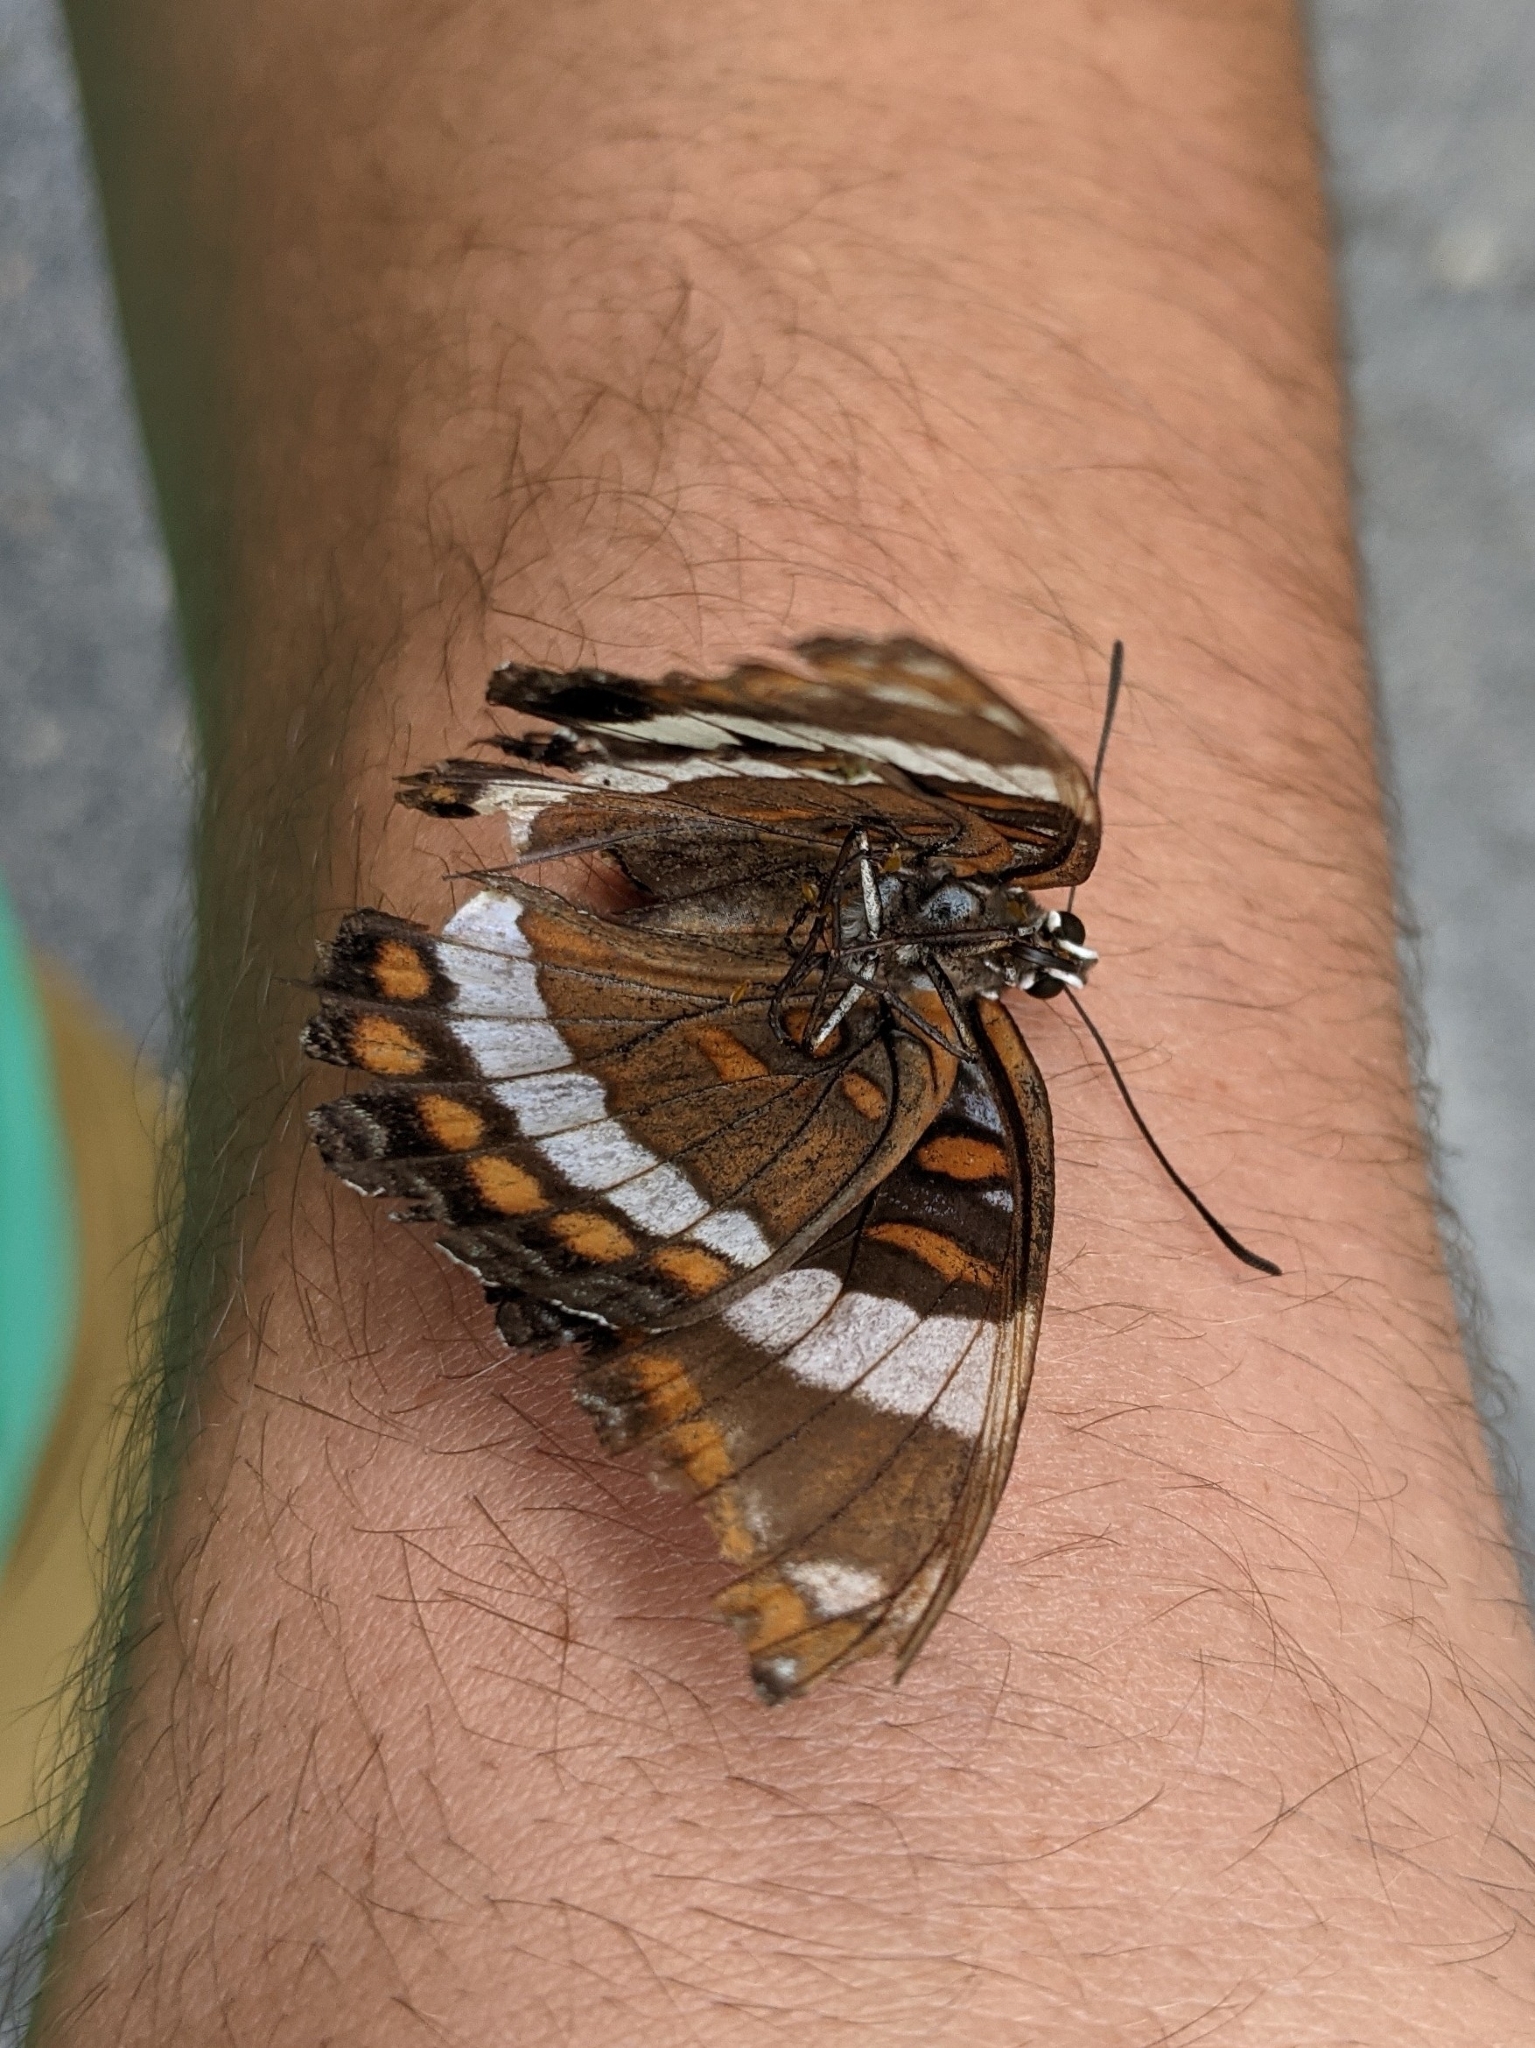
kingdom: Animalia
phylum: Arthropoda
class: Insecta
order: Lepidoptera
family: Nymphalidae
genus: Limenitis
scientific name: Limenitis arthemis
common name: Red-spotted admiral
